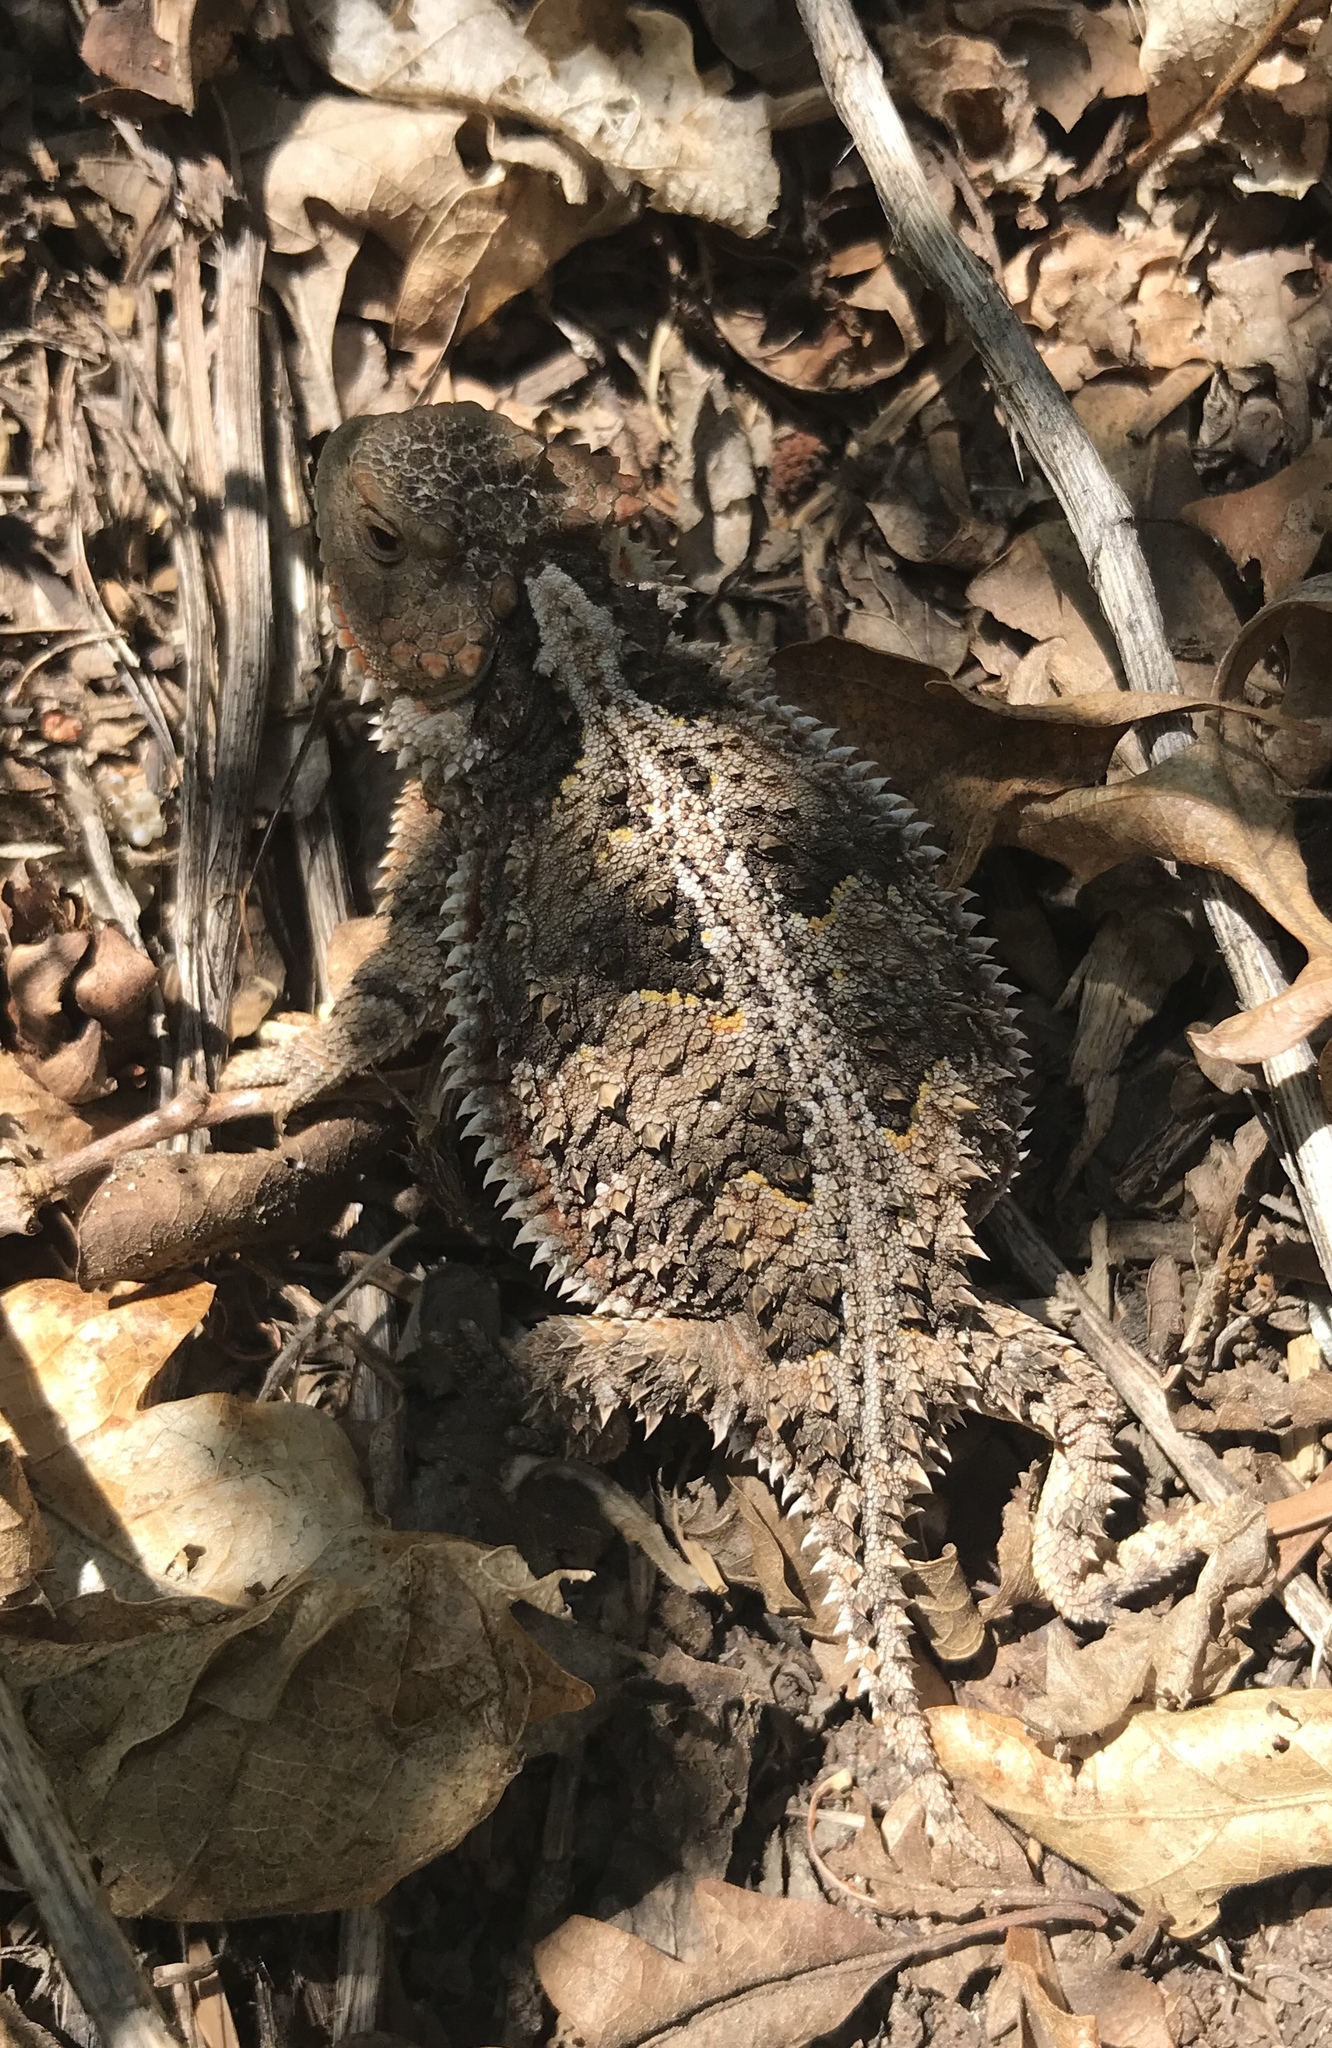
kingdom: Animalia
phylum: Chordata
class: Squamata
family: Phrynosomatidae
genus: Phrynosoma
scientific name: Phrynosoma hernandesi
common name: Greater short-horned lizard
